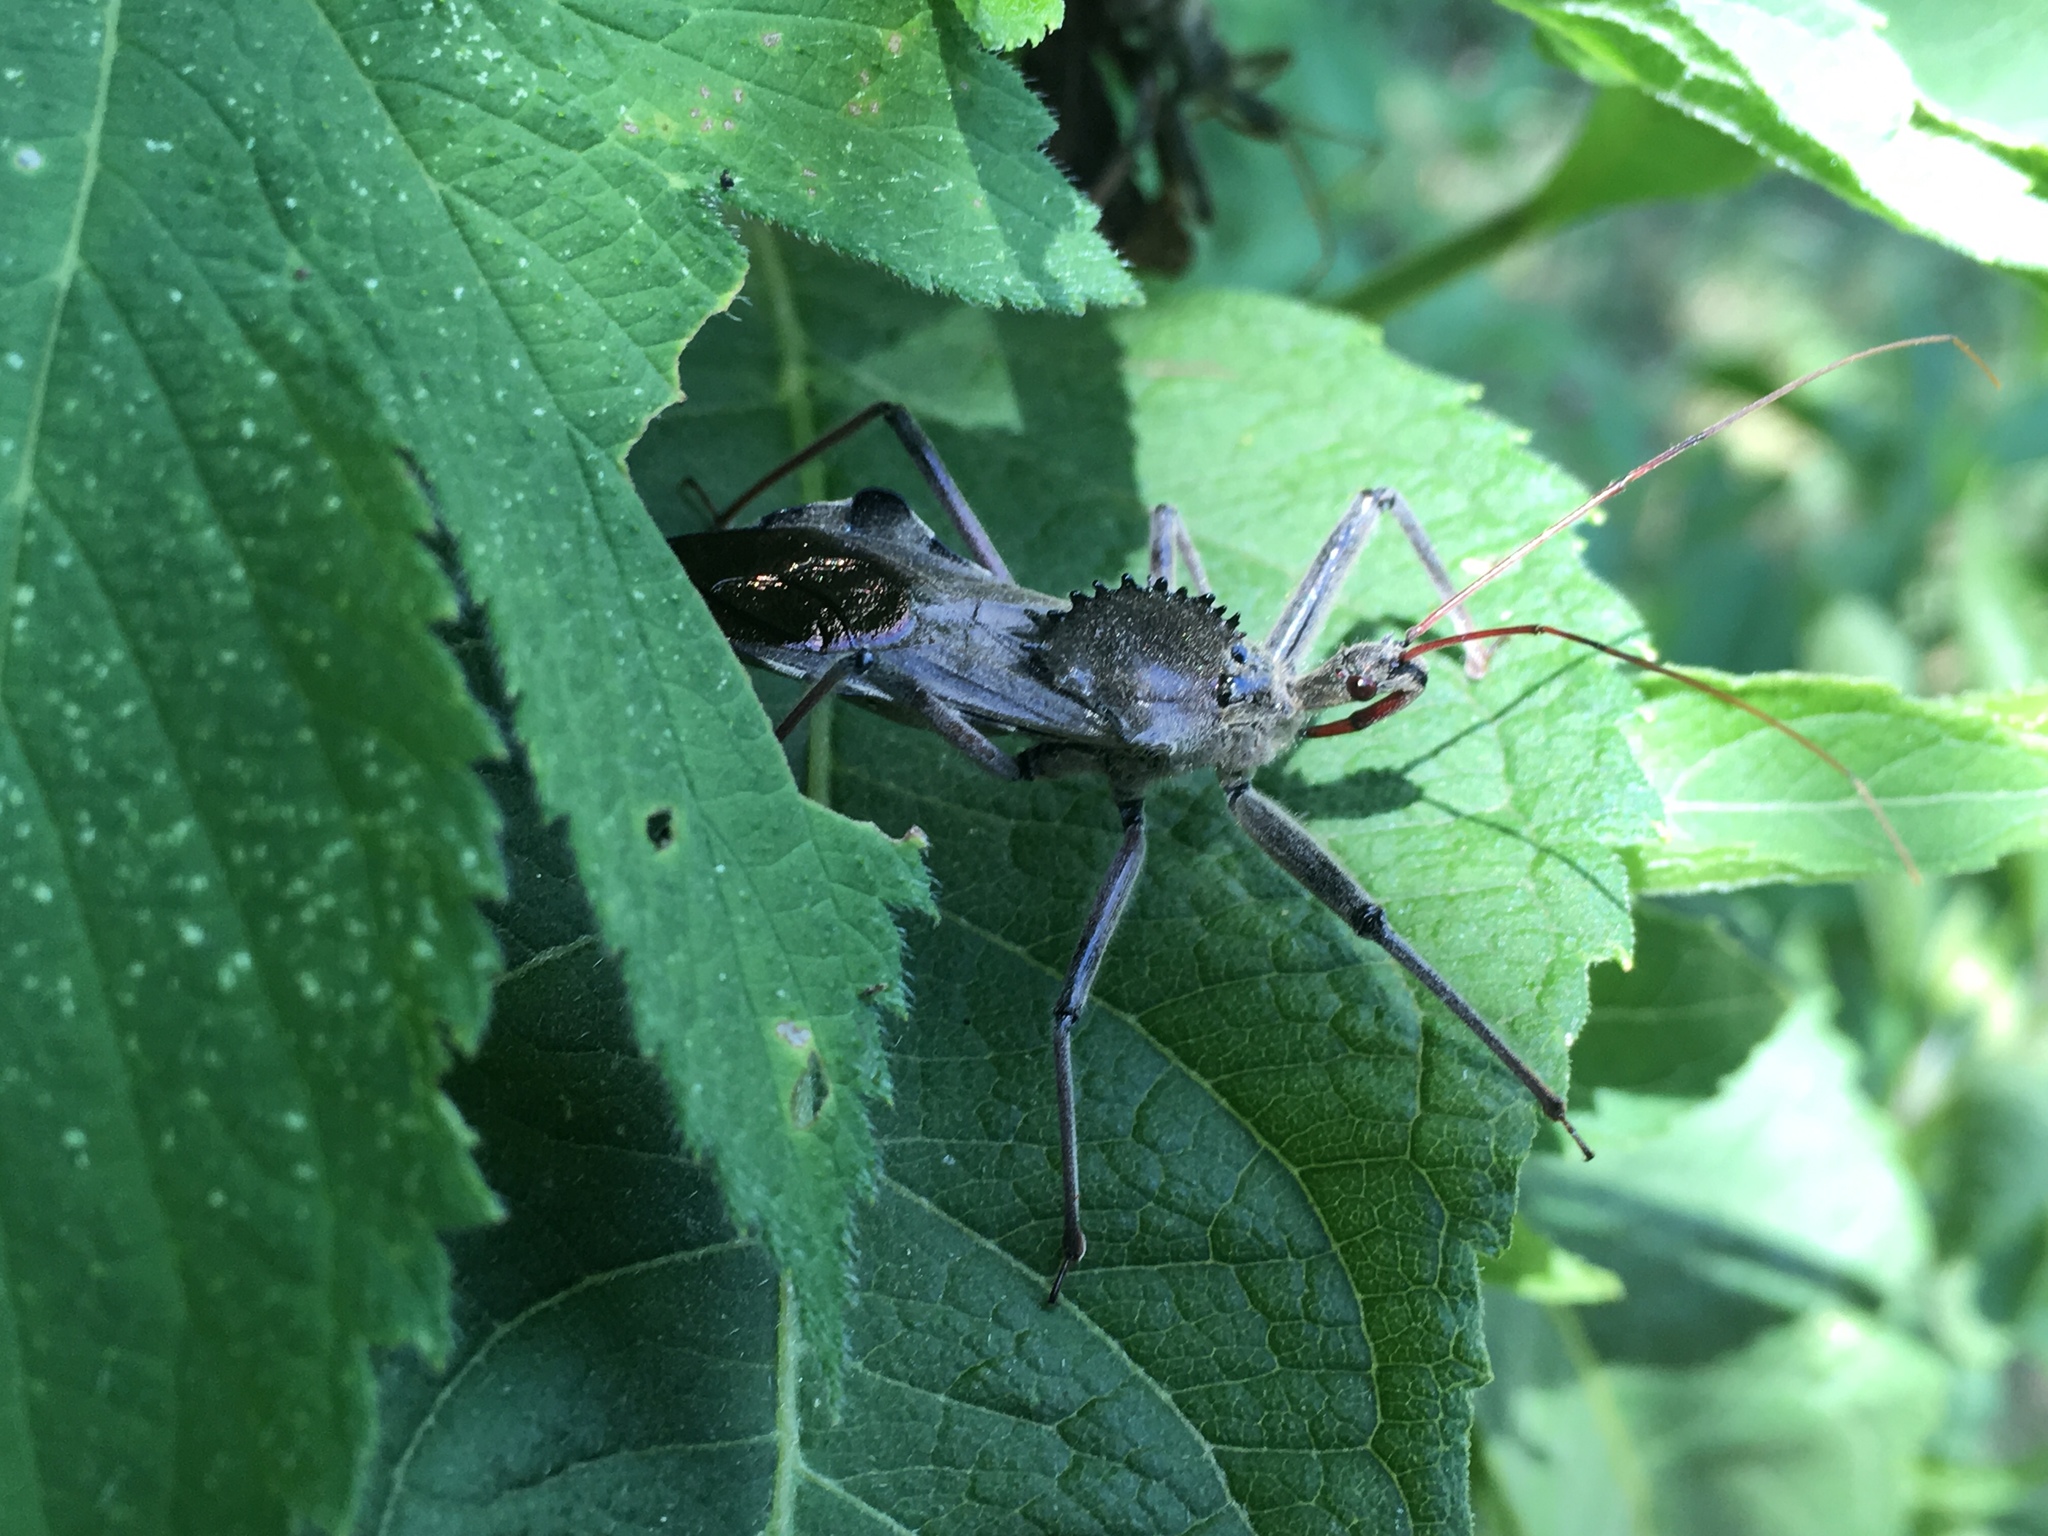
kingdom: Animalia
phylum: Arthropoda
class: Insecta
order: Hemiptera
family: Reduviidae
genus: Arilus
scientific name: Arilus cristatus
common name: North american wheel bug
